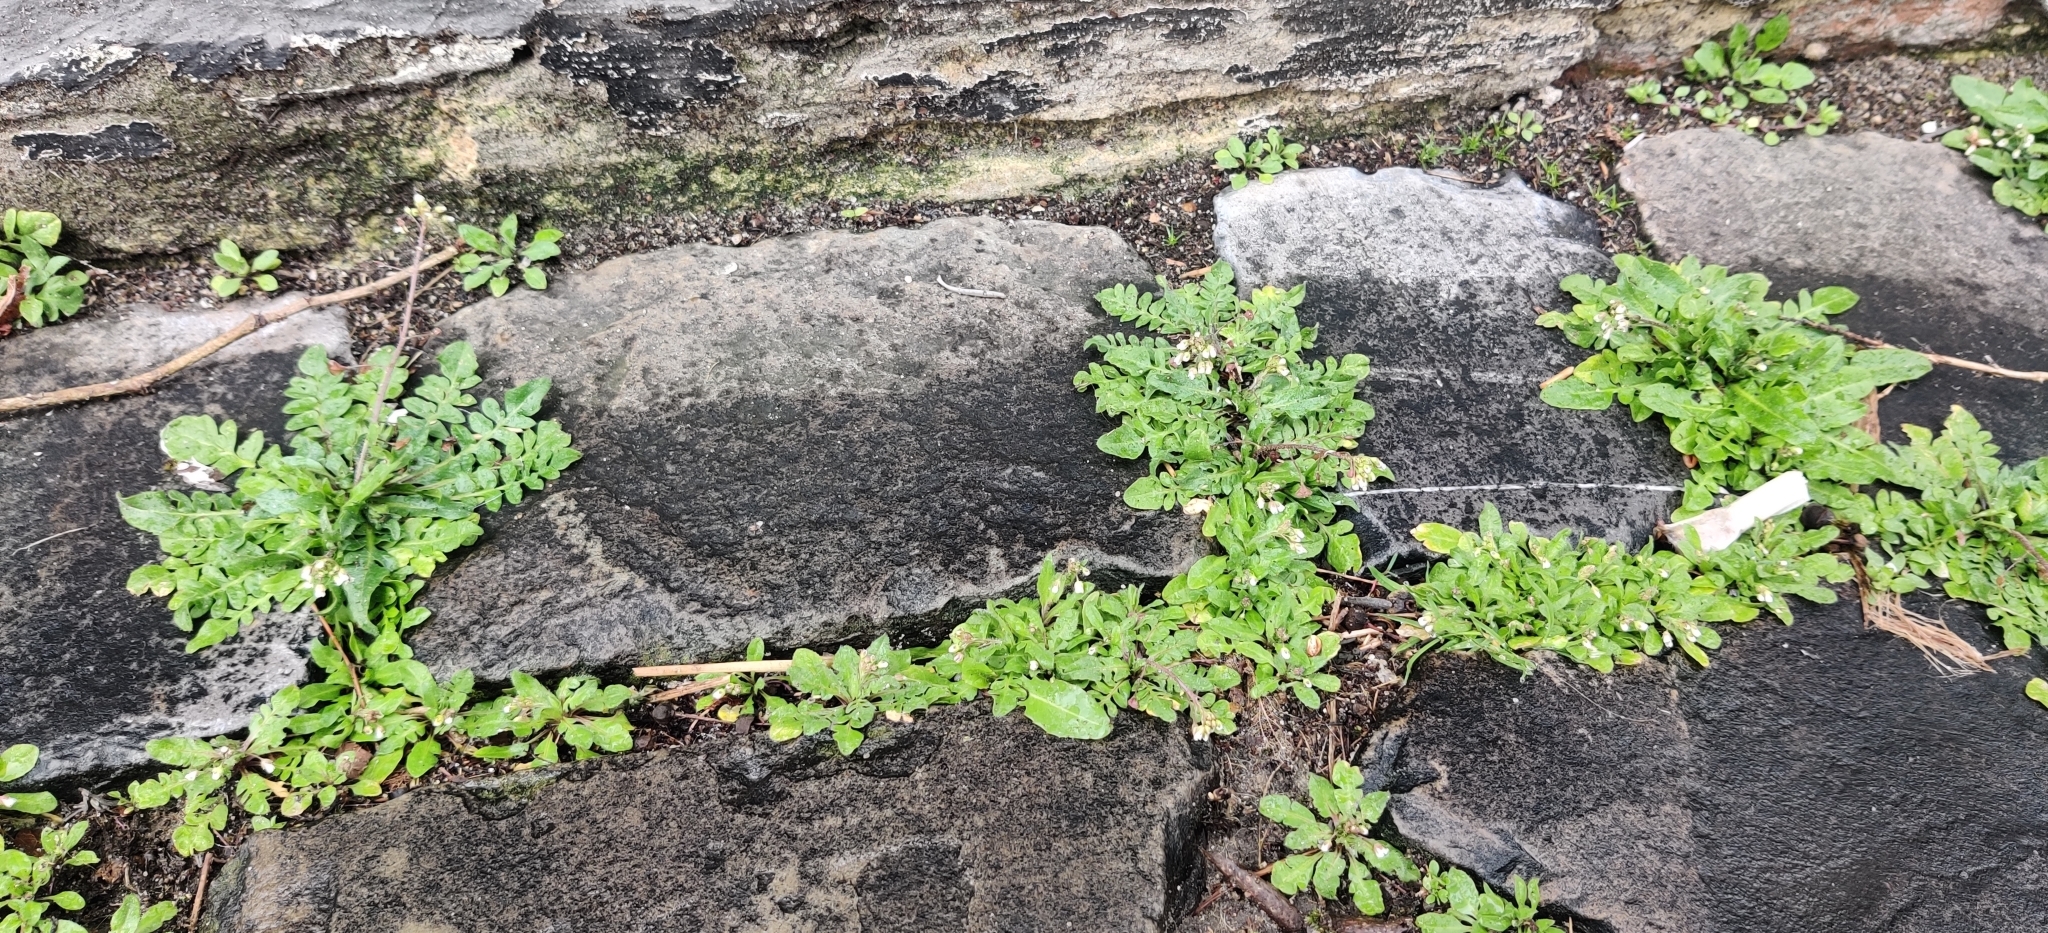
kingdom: Plantae
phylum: Tracheophyta
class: Magnoliopsida
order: Brassicales
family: Brassicaceae
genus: Capsella
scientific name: Capsella rubella
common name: Pink shepherd's-purse
